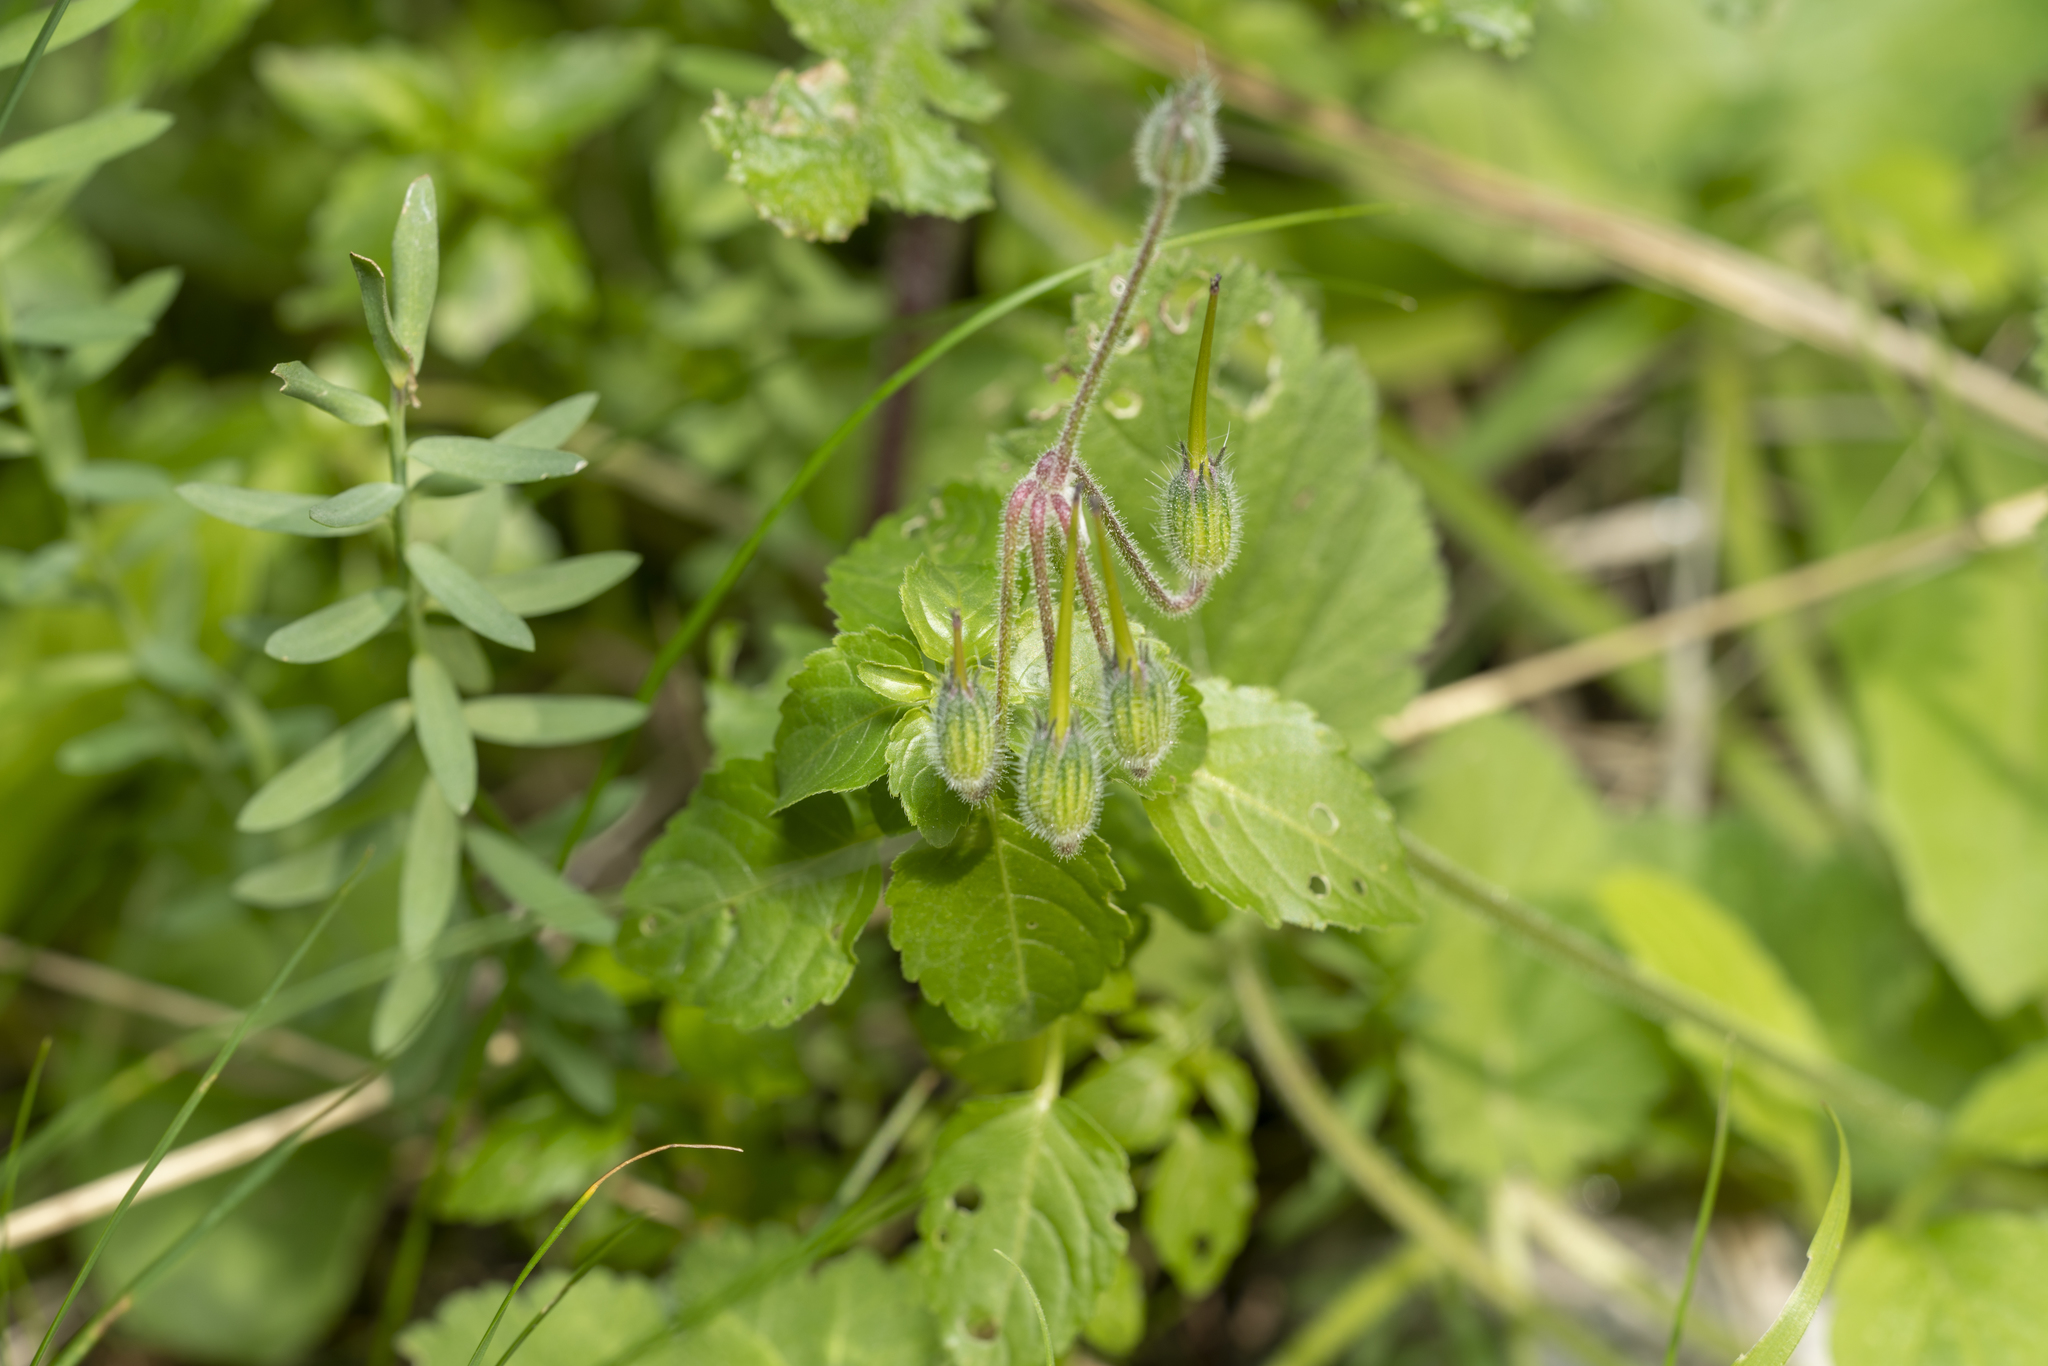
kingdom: Plantae
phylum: Tracheophyta
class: Magnoliopsida
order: Geraniales
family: Geraniaceae
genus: Erodium
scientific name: Erodium malacoides
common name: Soft stork's-bill
